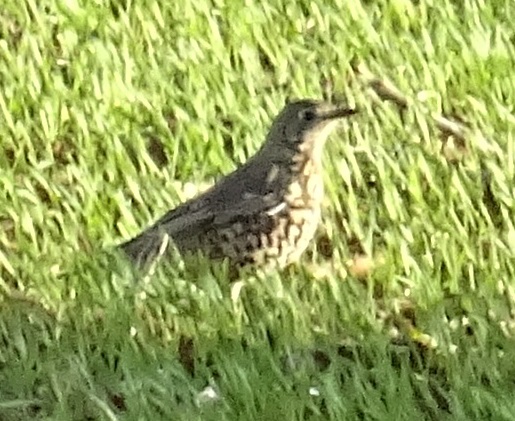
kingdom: Animalia
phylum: Chordata
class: Aves
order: Passeriformes
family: Turdidae
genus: Turdus
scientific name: Turdus viscivorus
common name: Mistle thrush
